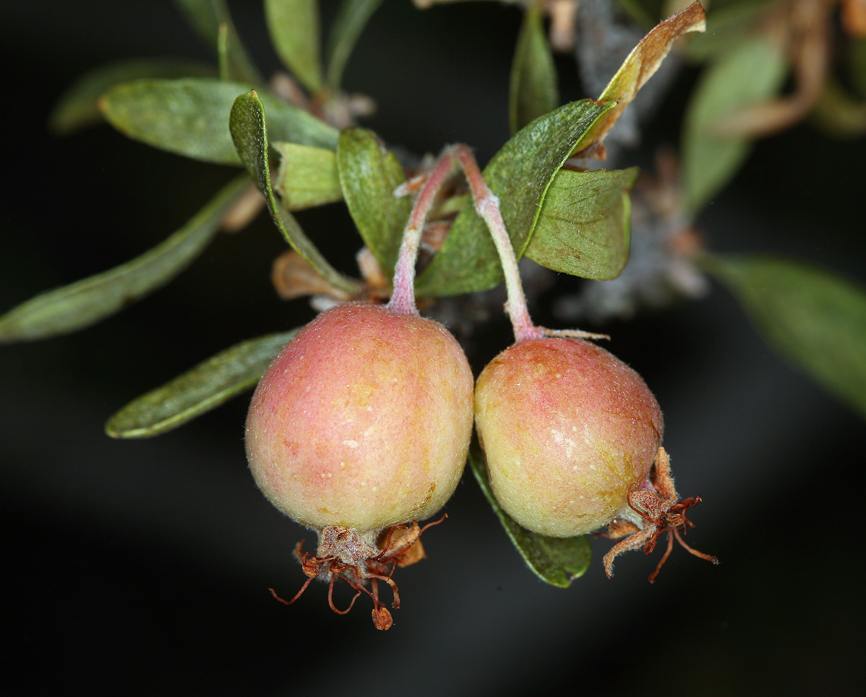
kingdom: Plantae
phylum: Tracheophyta
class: Magnoliopsida
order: Rosales
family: Rosaceae
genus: Amelanchier
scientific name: Amelanchier ramosissima
